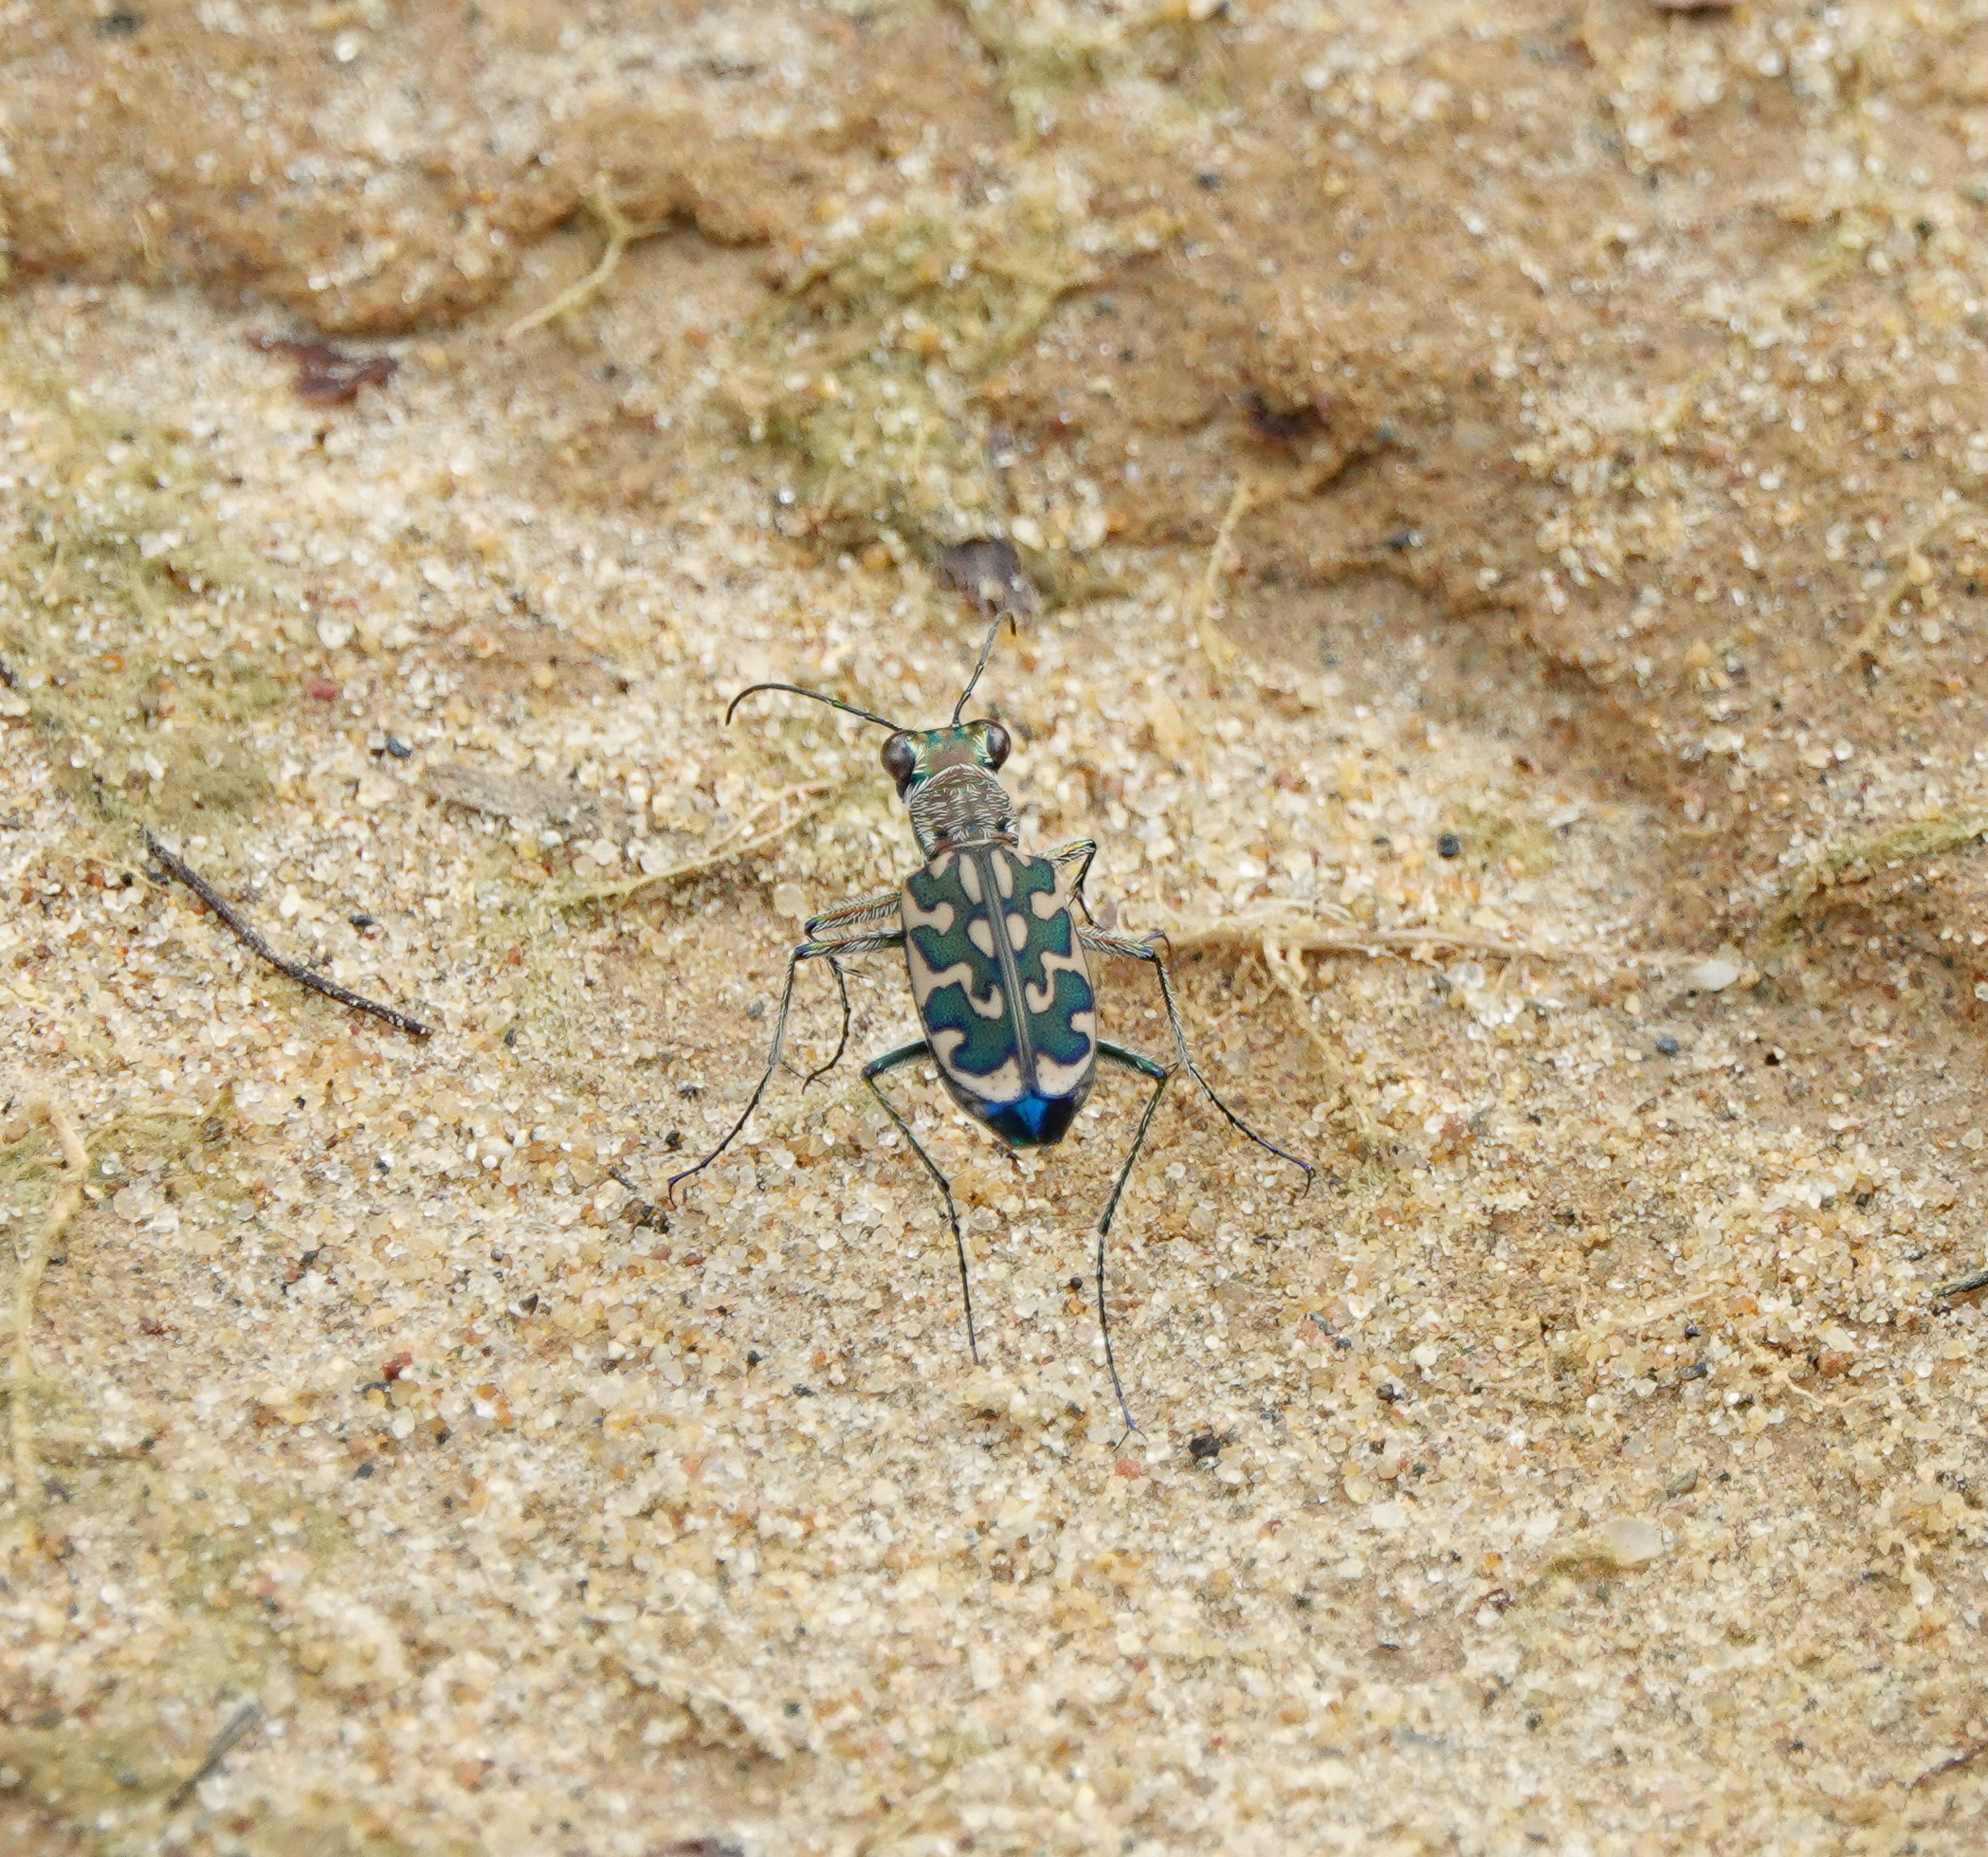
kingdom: Animalia
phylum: Arthropoda
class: Insecta
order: Coleoptera
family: Carabidae
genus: Lophyra
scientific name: Lophyra cancellata
